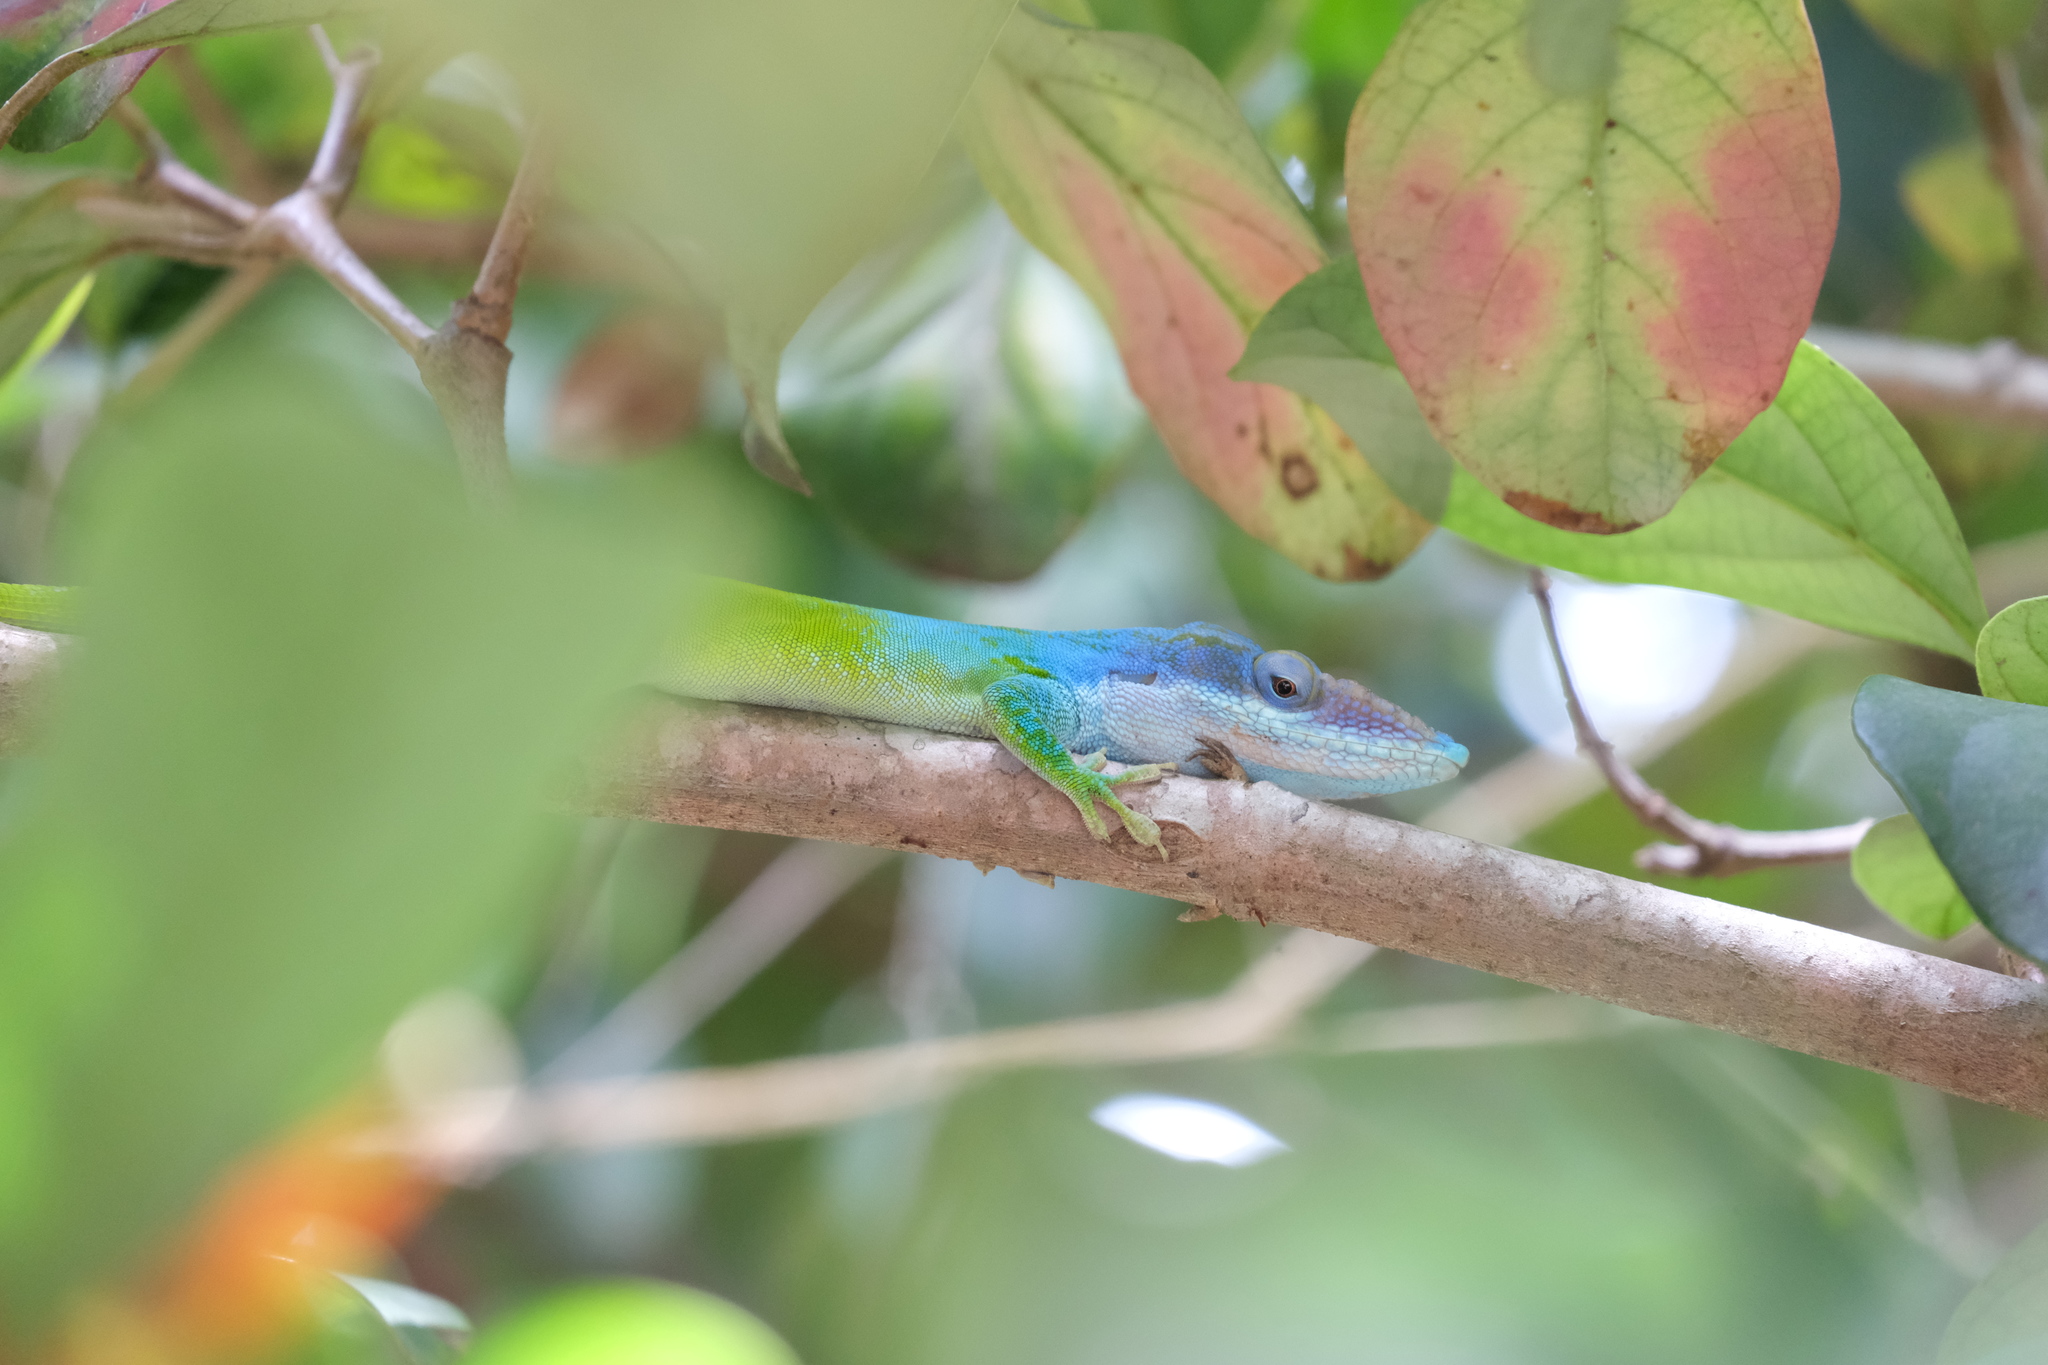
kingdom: Animalia
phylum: Chordata
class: Squamata
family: Dactyloidae
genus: Anolis
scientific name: Anolis allisoni
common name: Allison's anole
